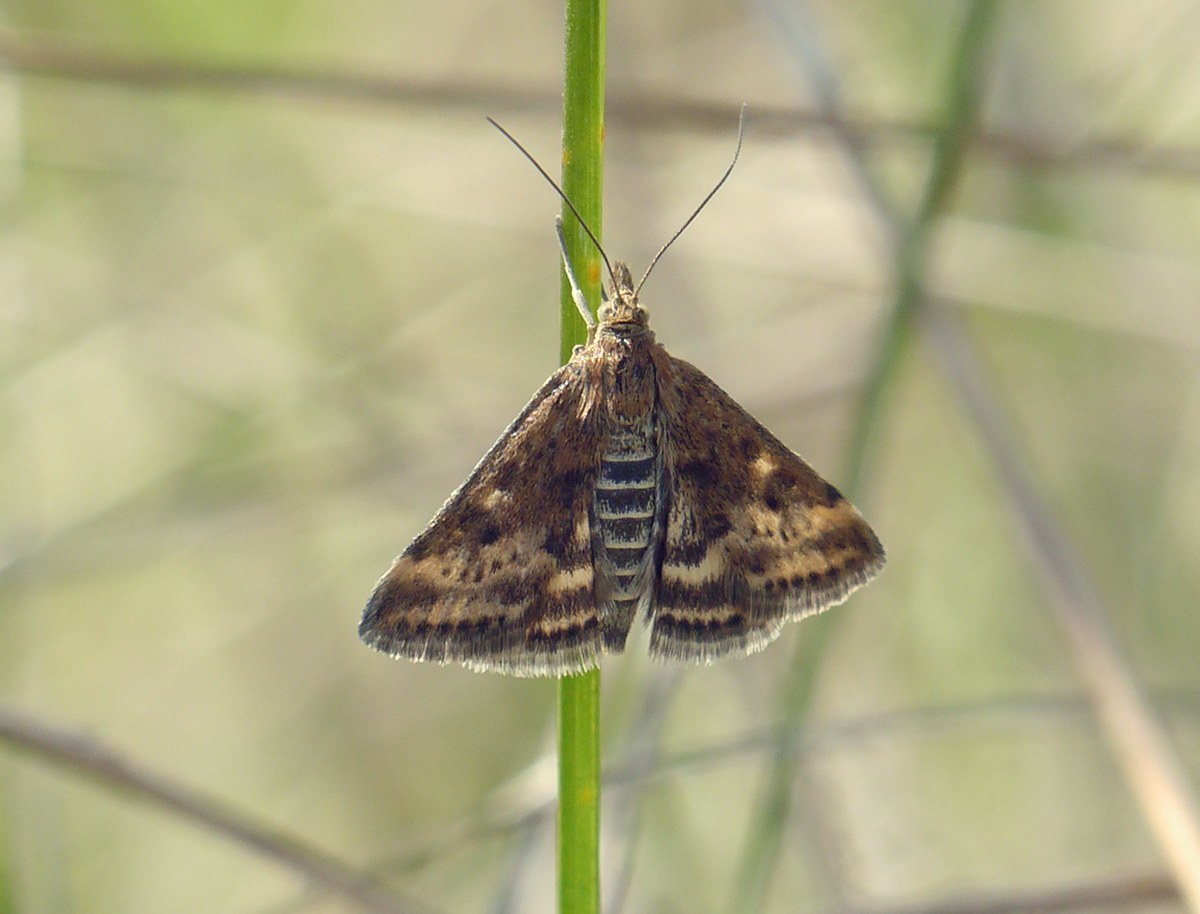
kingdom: Animalia
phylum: Arthropoda
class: Insecta
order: Lepidoptera
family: Crambidae
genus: Pyrausta
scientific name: Pyrausta despicata
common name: Straw-barred pearl
